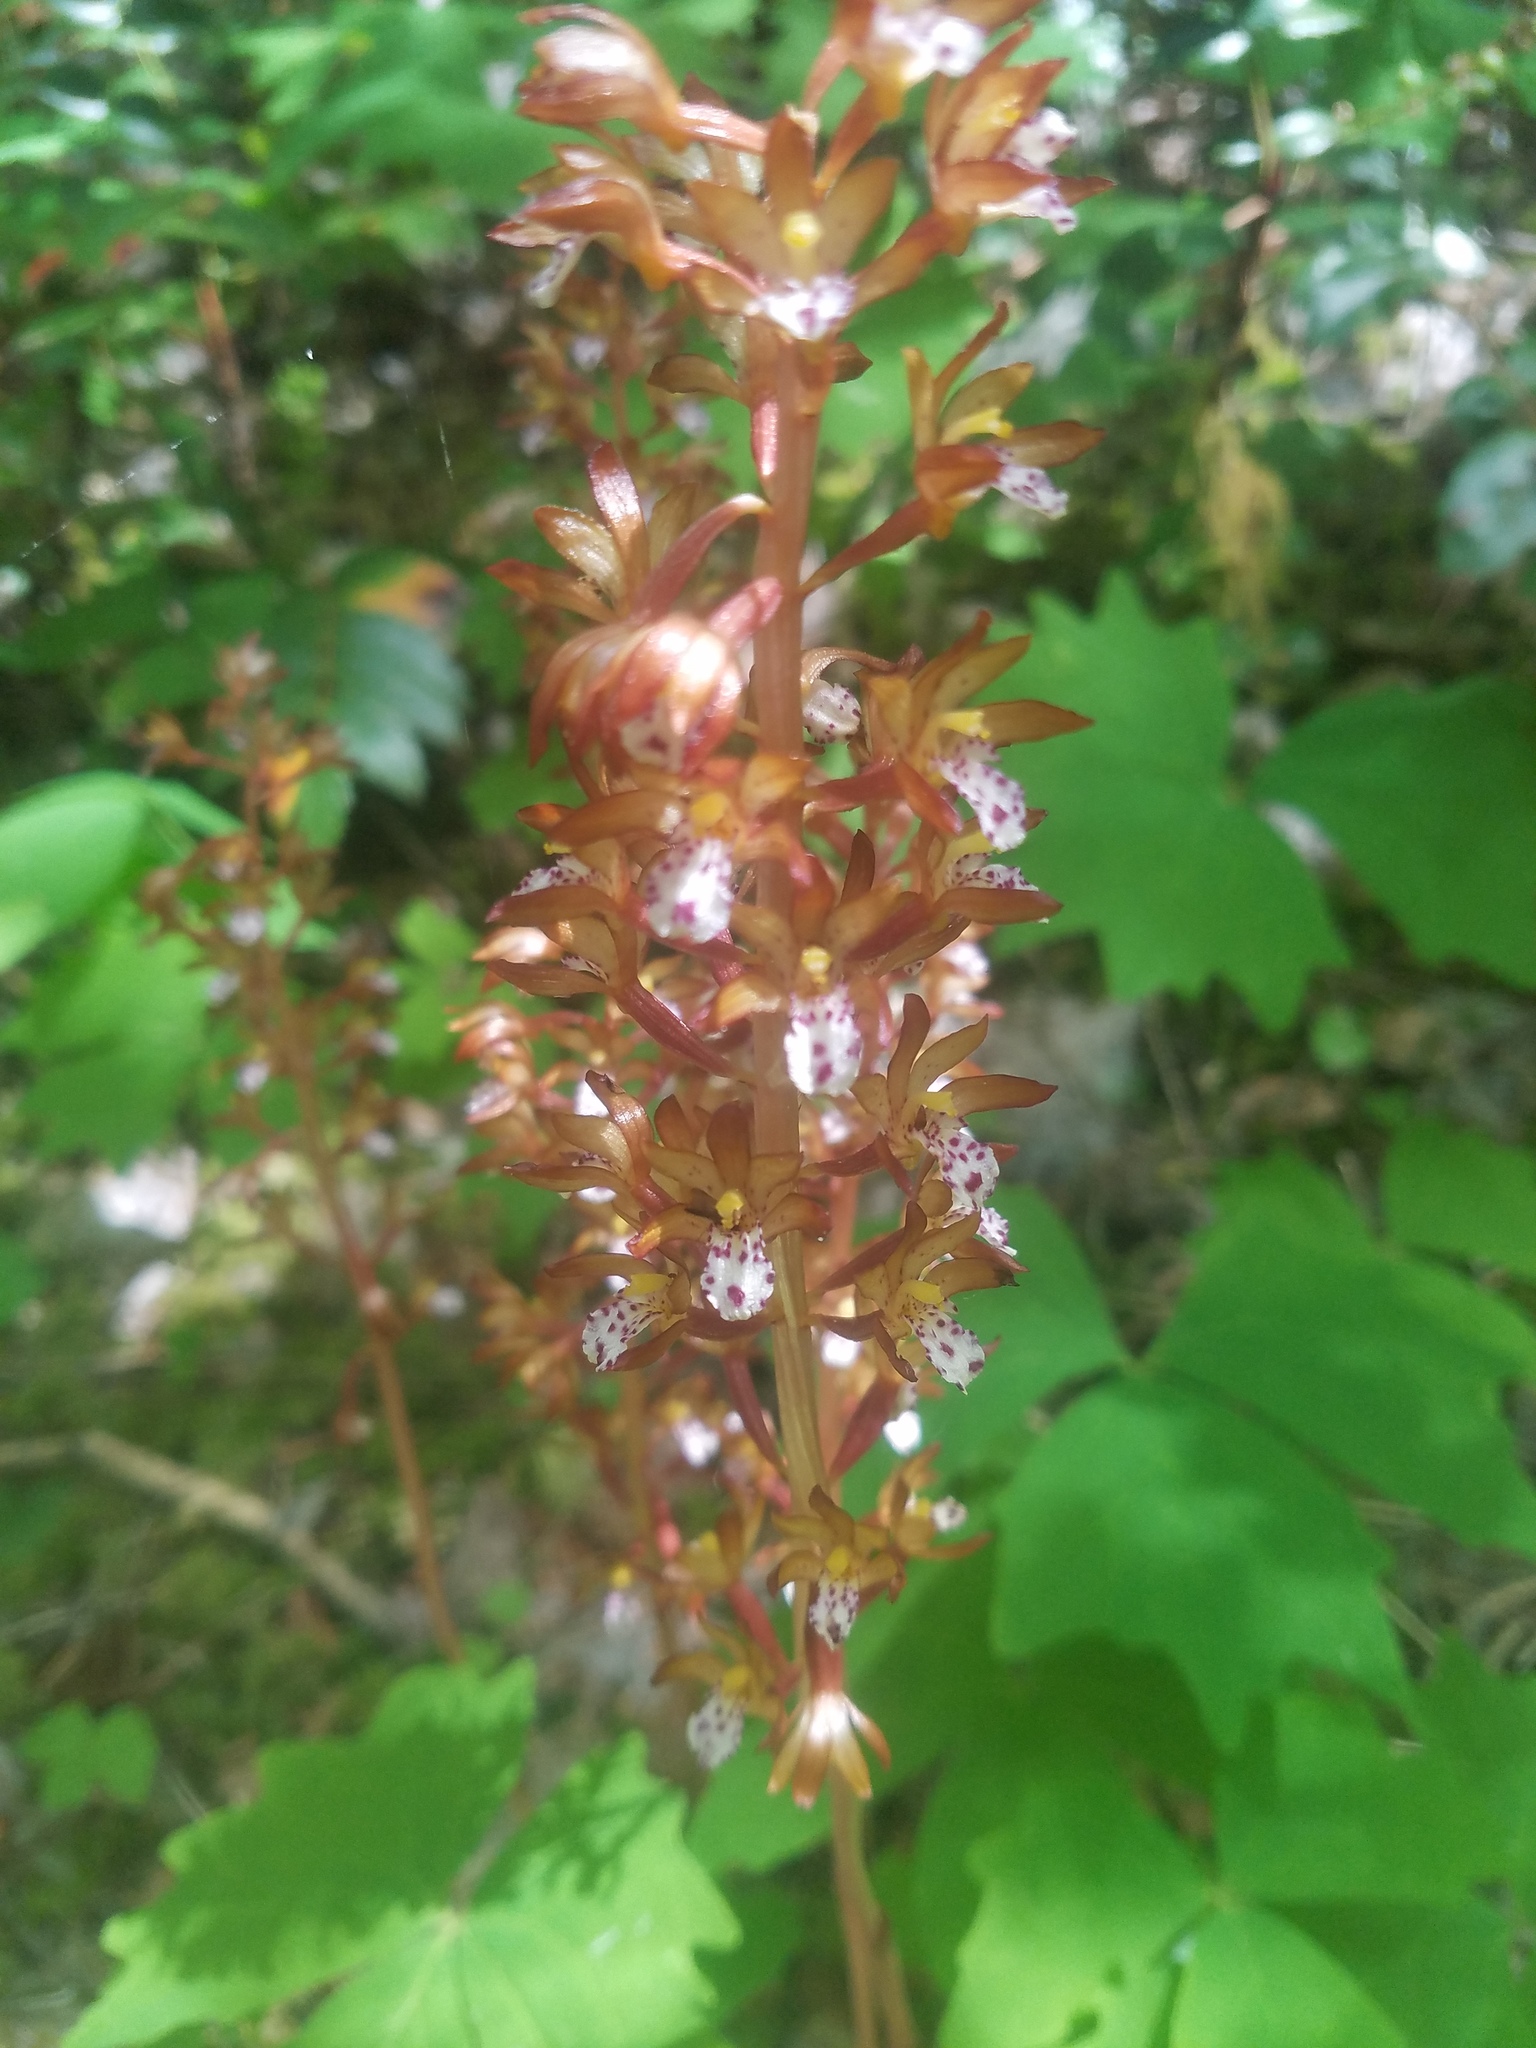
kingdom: Plantae
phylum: Tracheophyta
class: Liliopsida
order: Asparagales
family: Orchidaceae
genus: Corallorhiza
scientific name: Corallorhiza maculata
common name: Spotted coralroot
